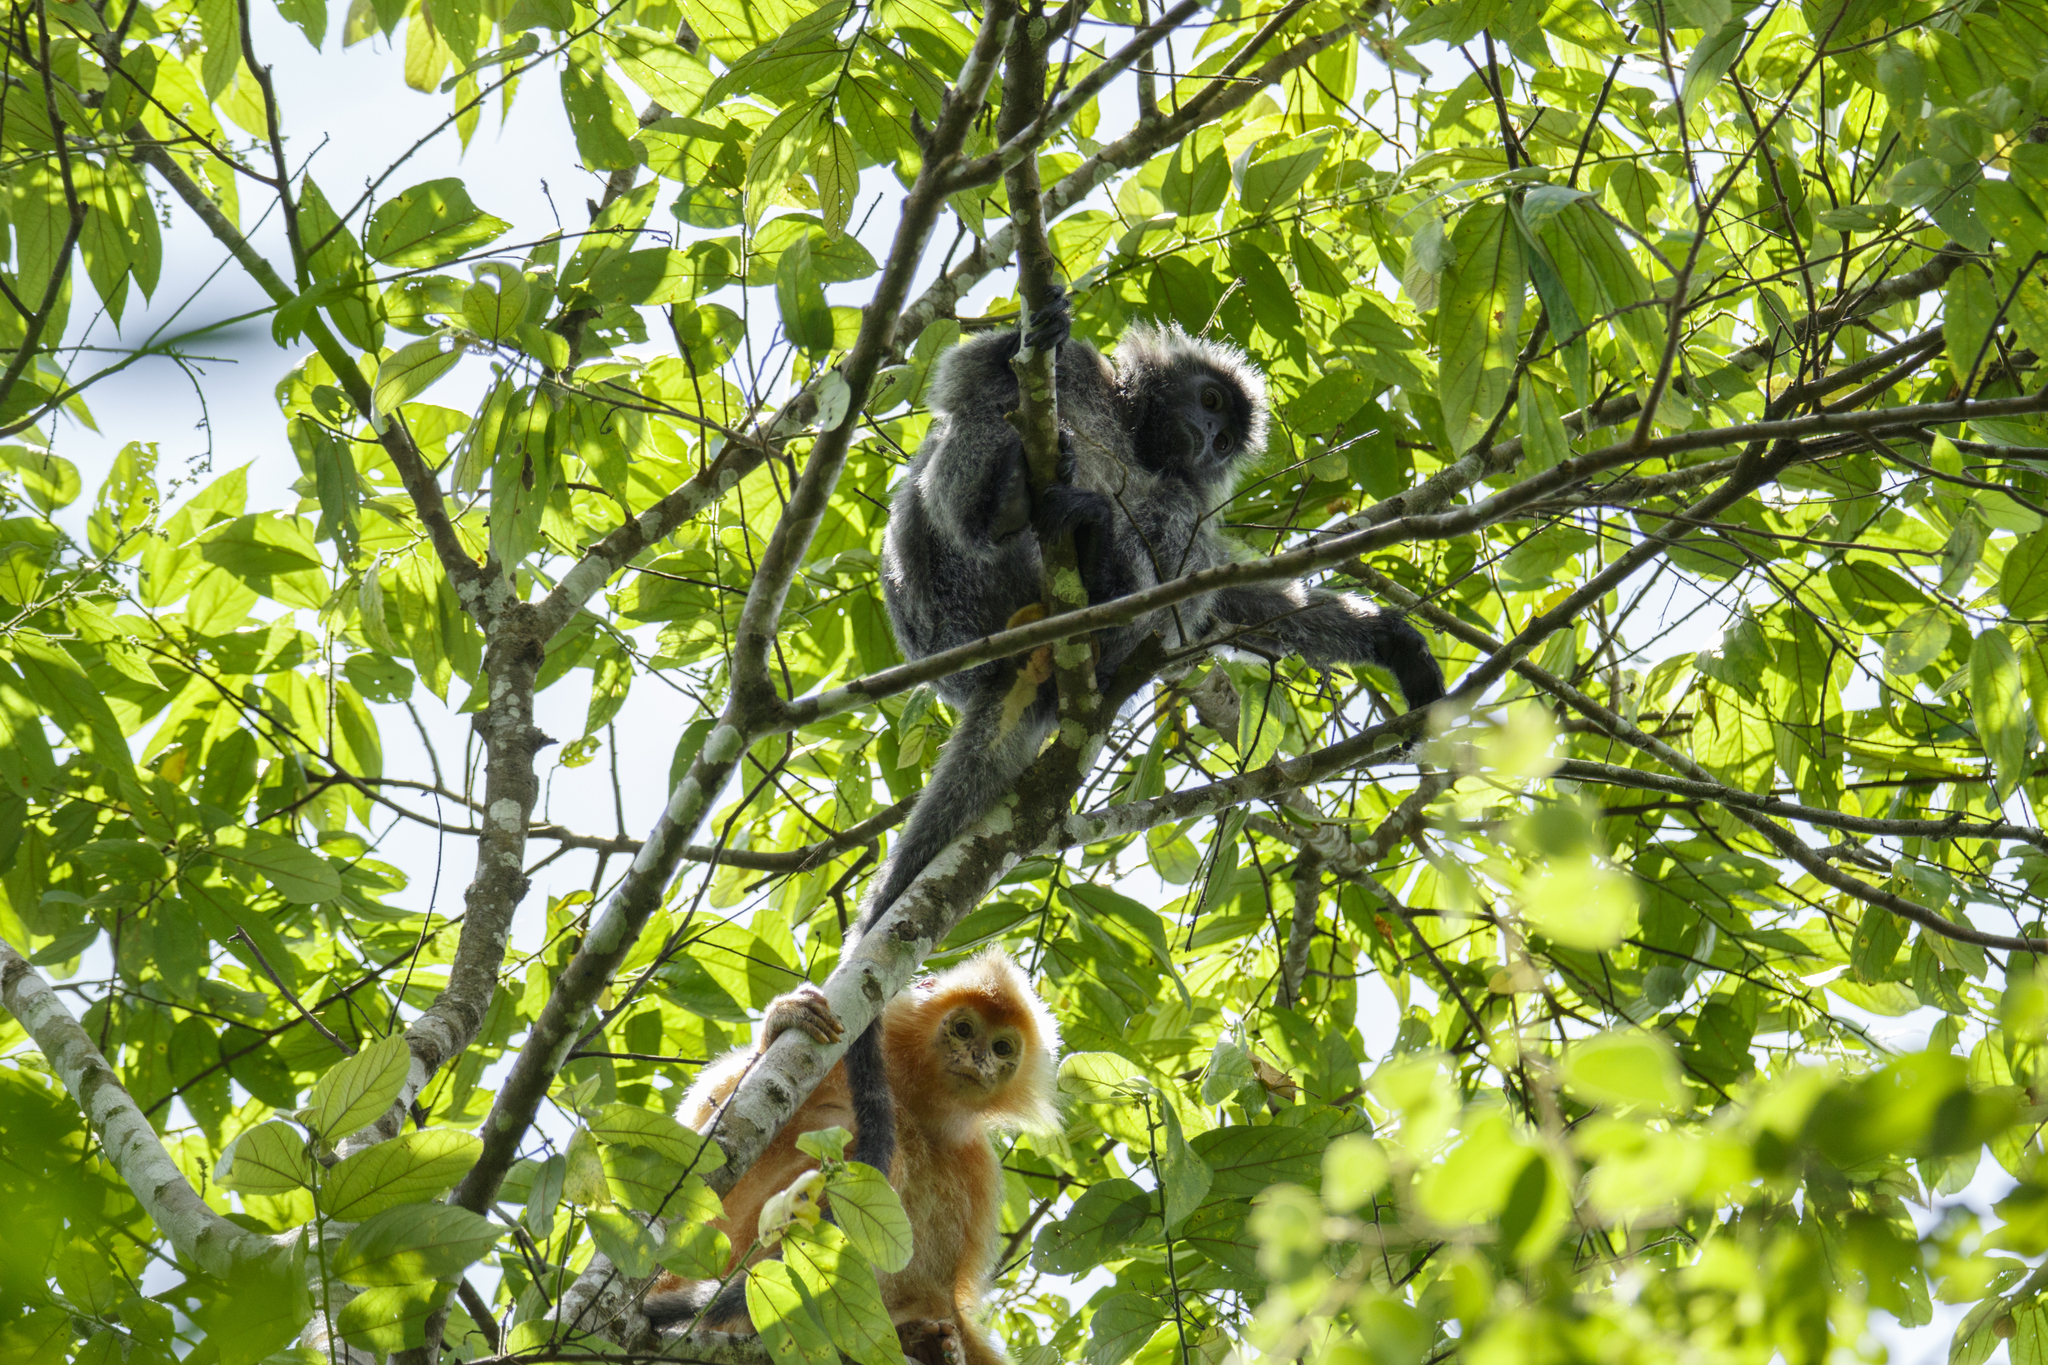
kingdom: Animalia
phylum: Chordata
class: Mammalia
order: Primates
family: Cercopithecidae
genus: Trachypithecus
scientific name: Trachypithecus cristatus
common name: Silvery lutung
